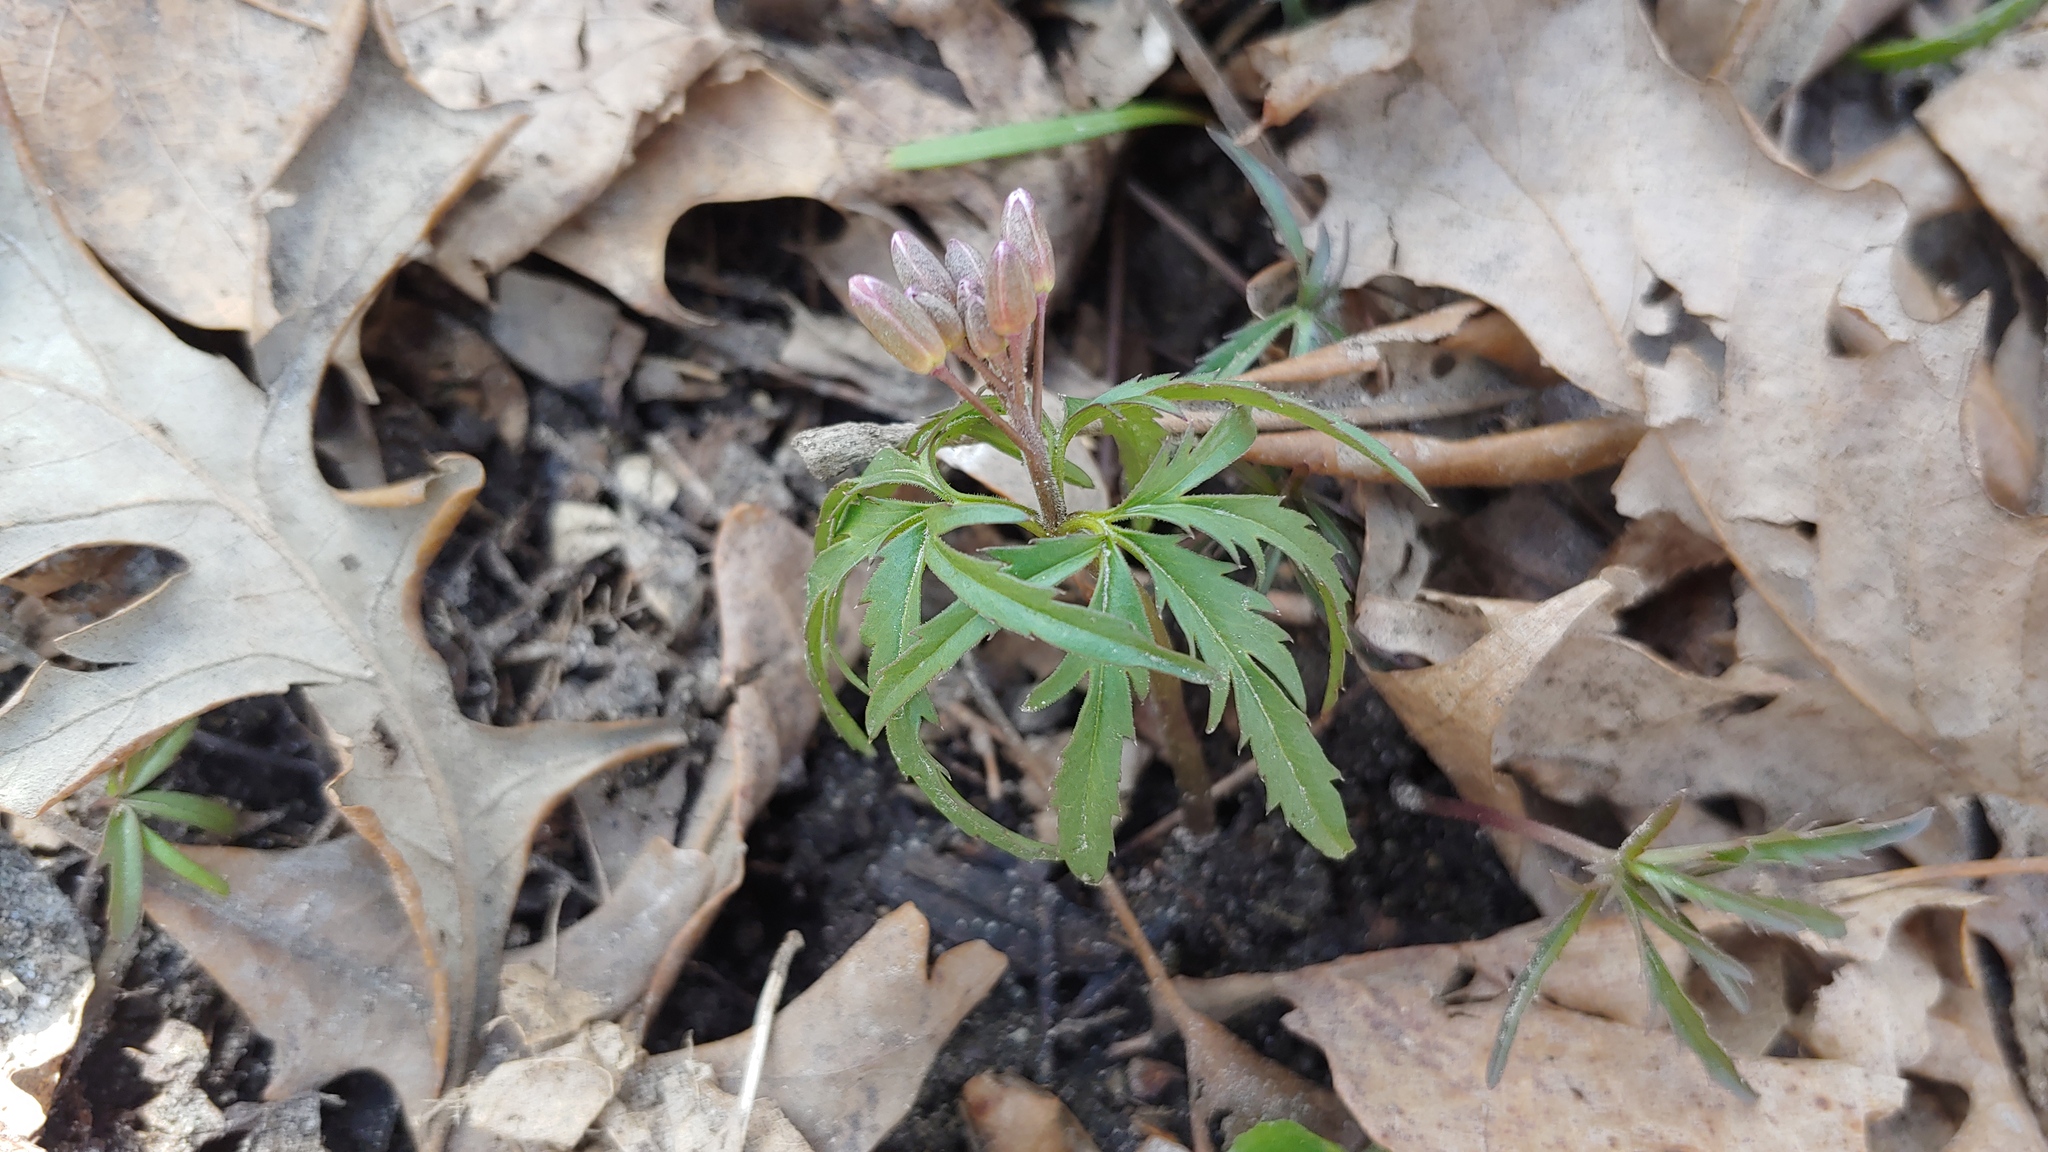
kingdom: Plantae
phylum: Tracheophyta
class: Magnoliopsida
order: Brassicales
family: Brassicaceae
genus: Cardamine
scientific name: Cardamine concatenata
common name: Cut-leaf toothcup
